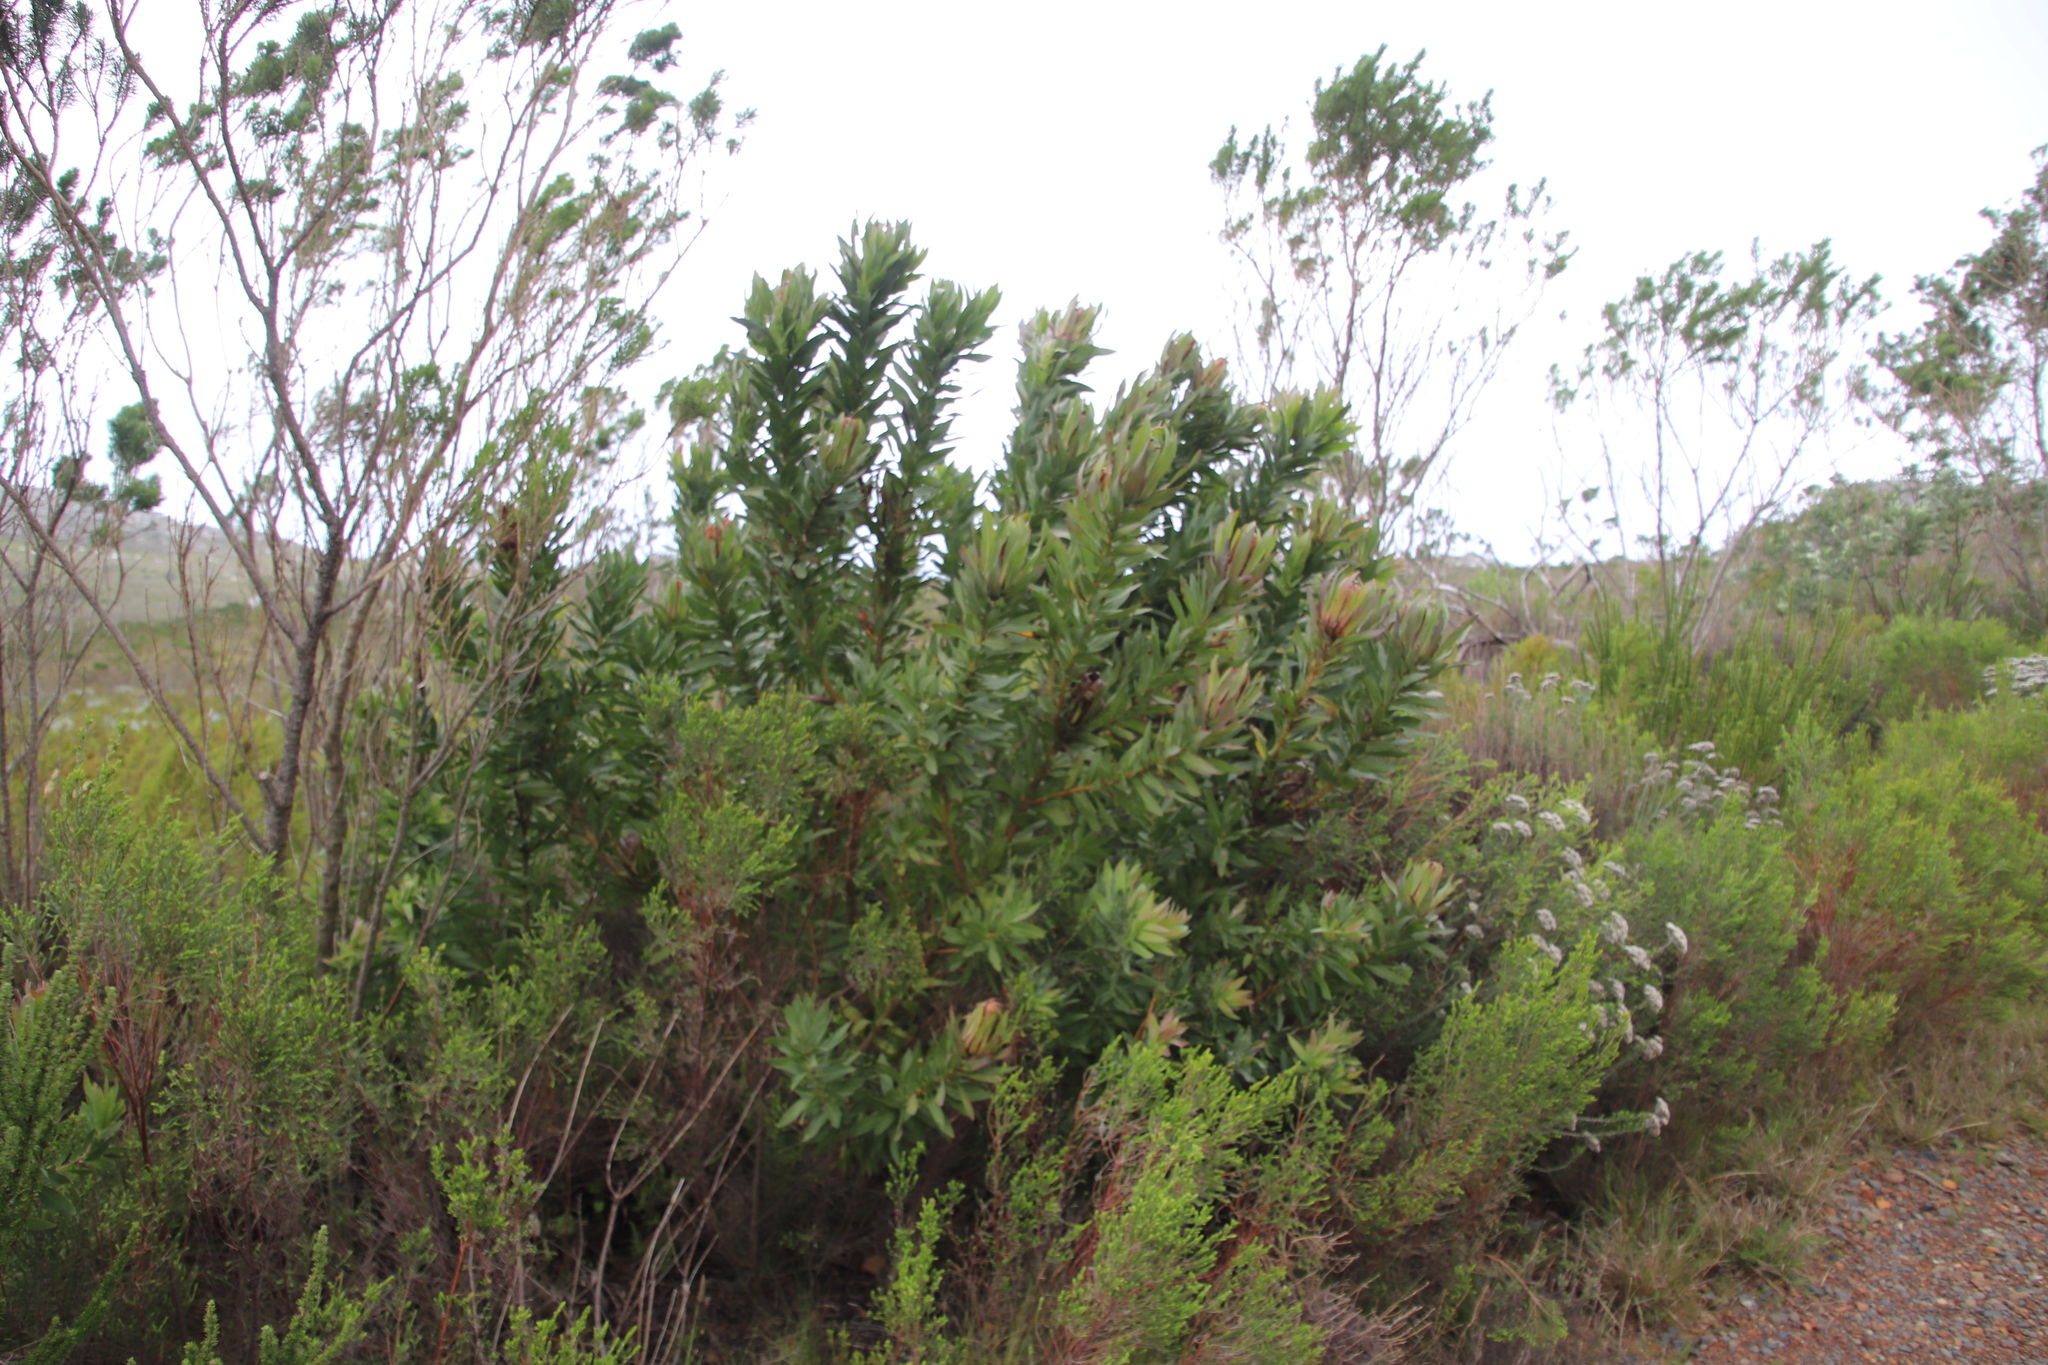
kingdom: Plantae
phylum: Tracheophyta
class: Magnoliopsida
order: Proteales
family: Proteaceae
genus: Protea
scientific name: Protea coronata
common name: Green sugarbush
